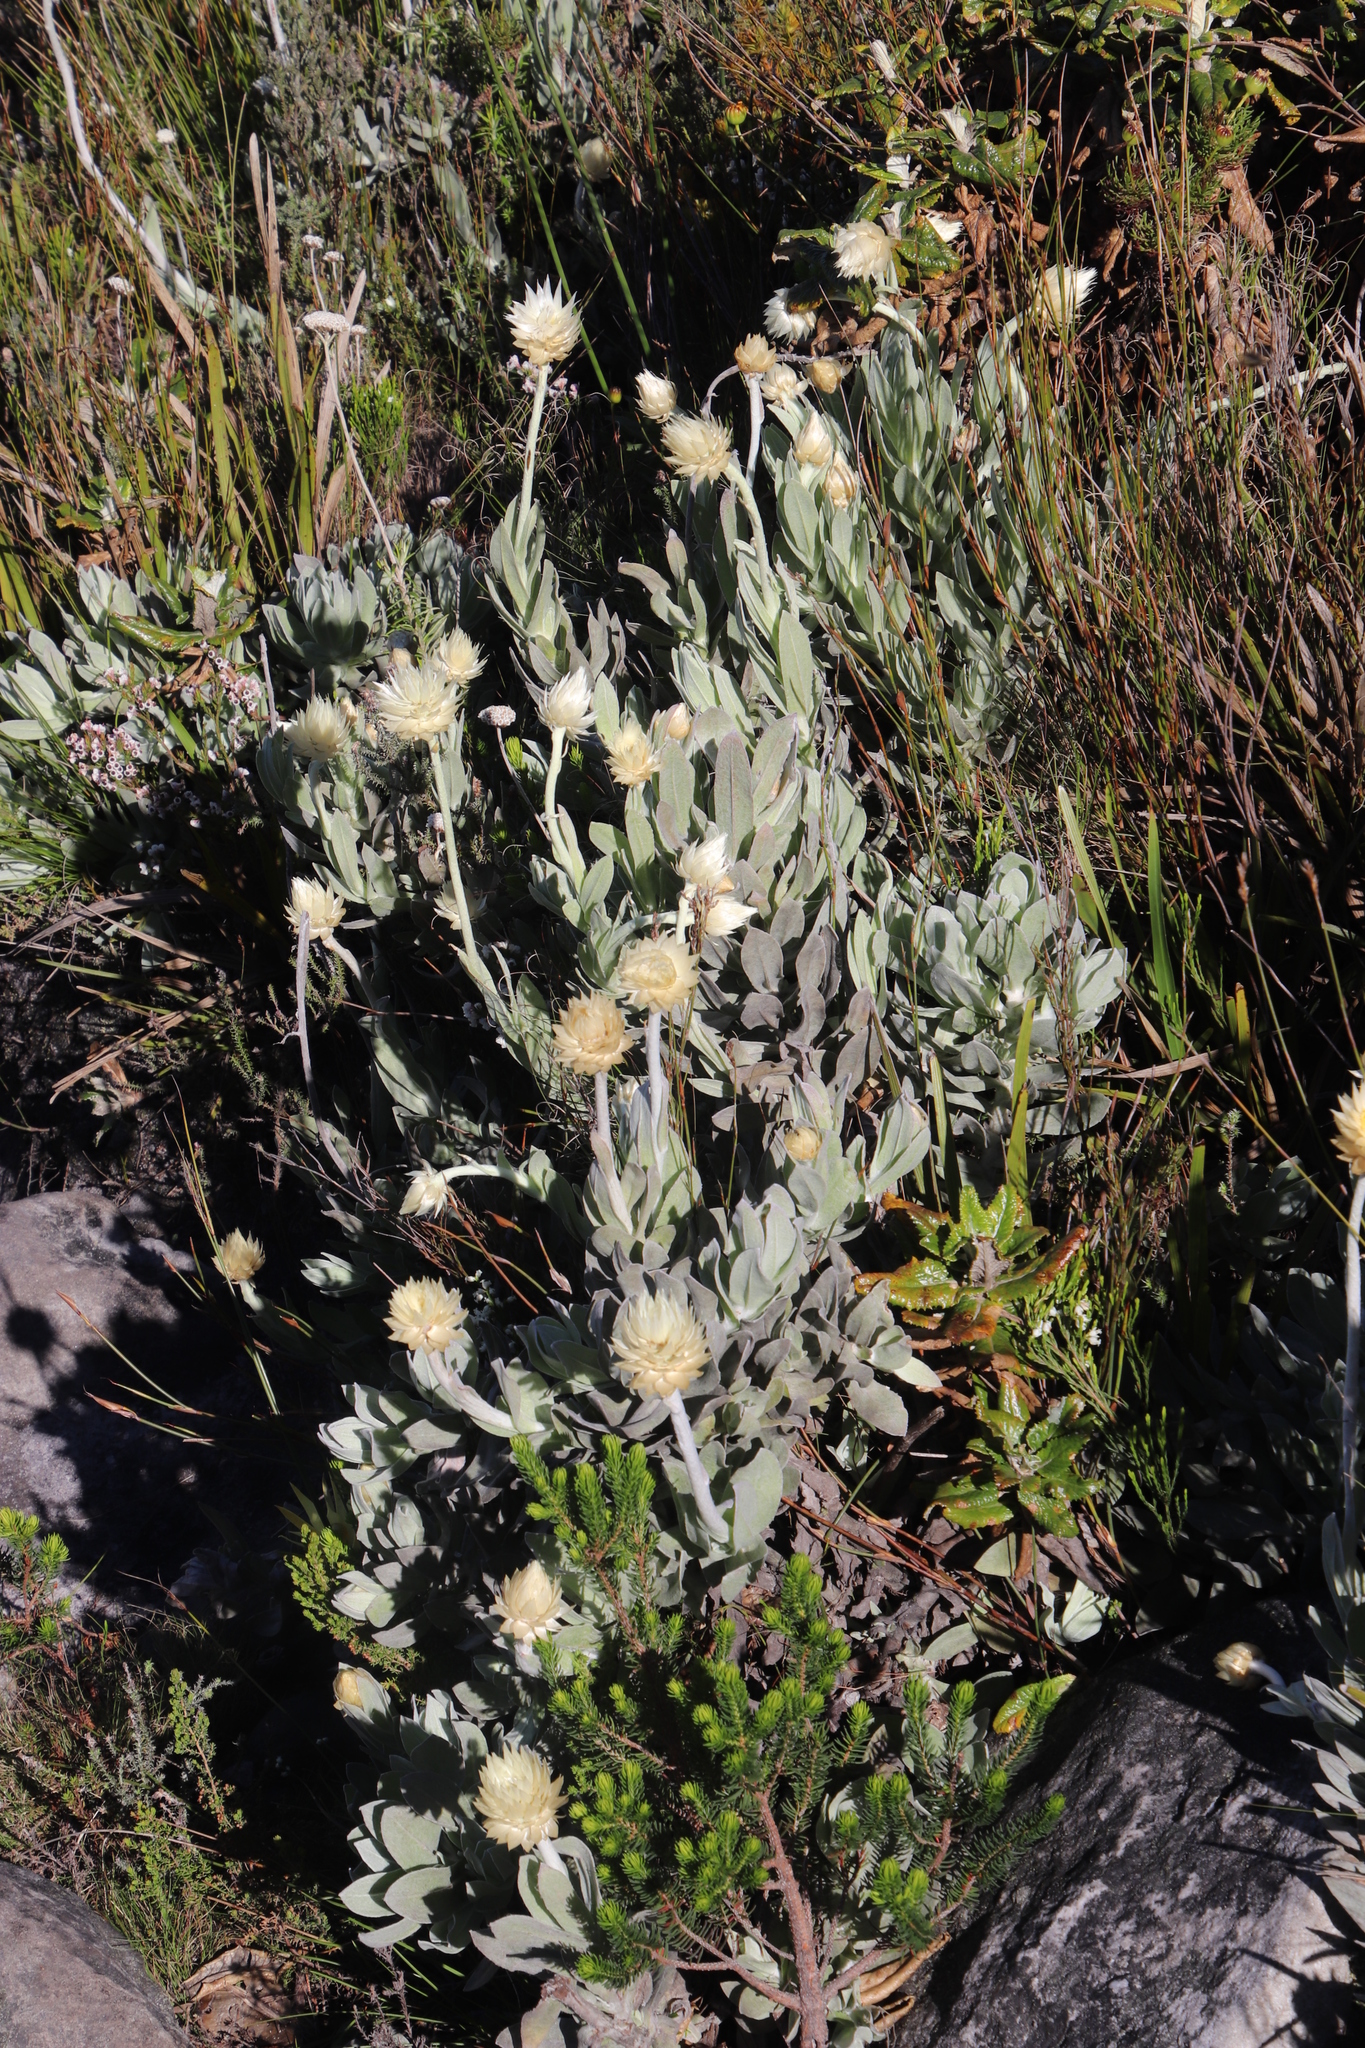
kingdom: Plantae
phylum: Tracheophyta
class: Magnoliopsida
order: Asterales
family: Asteraceae
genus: Syncarpha
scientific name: Syncarpha speciosissima
